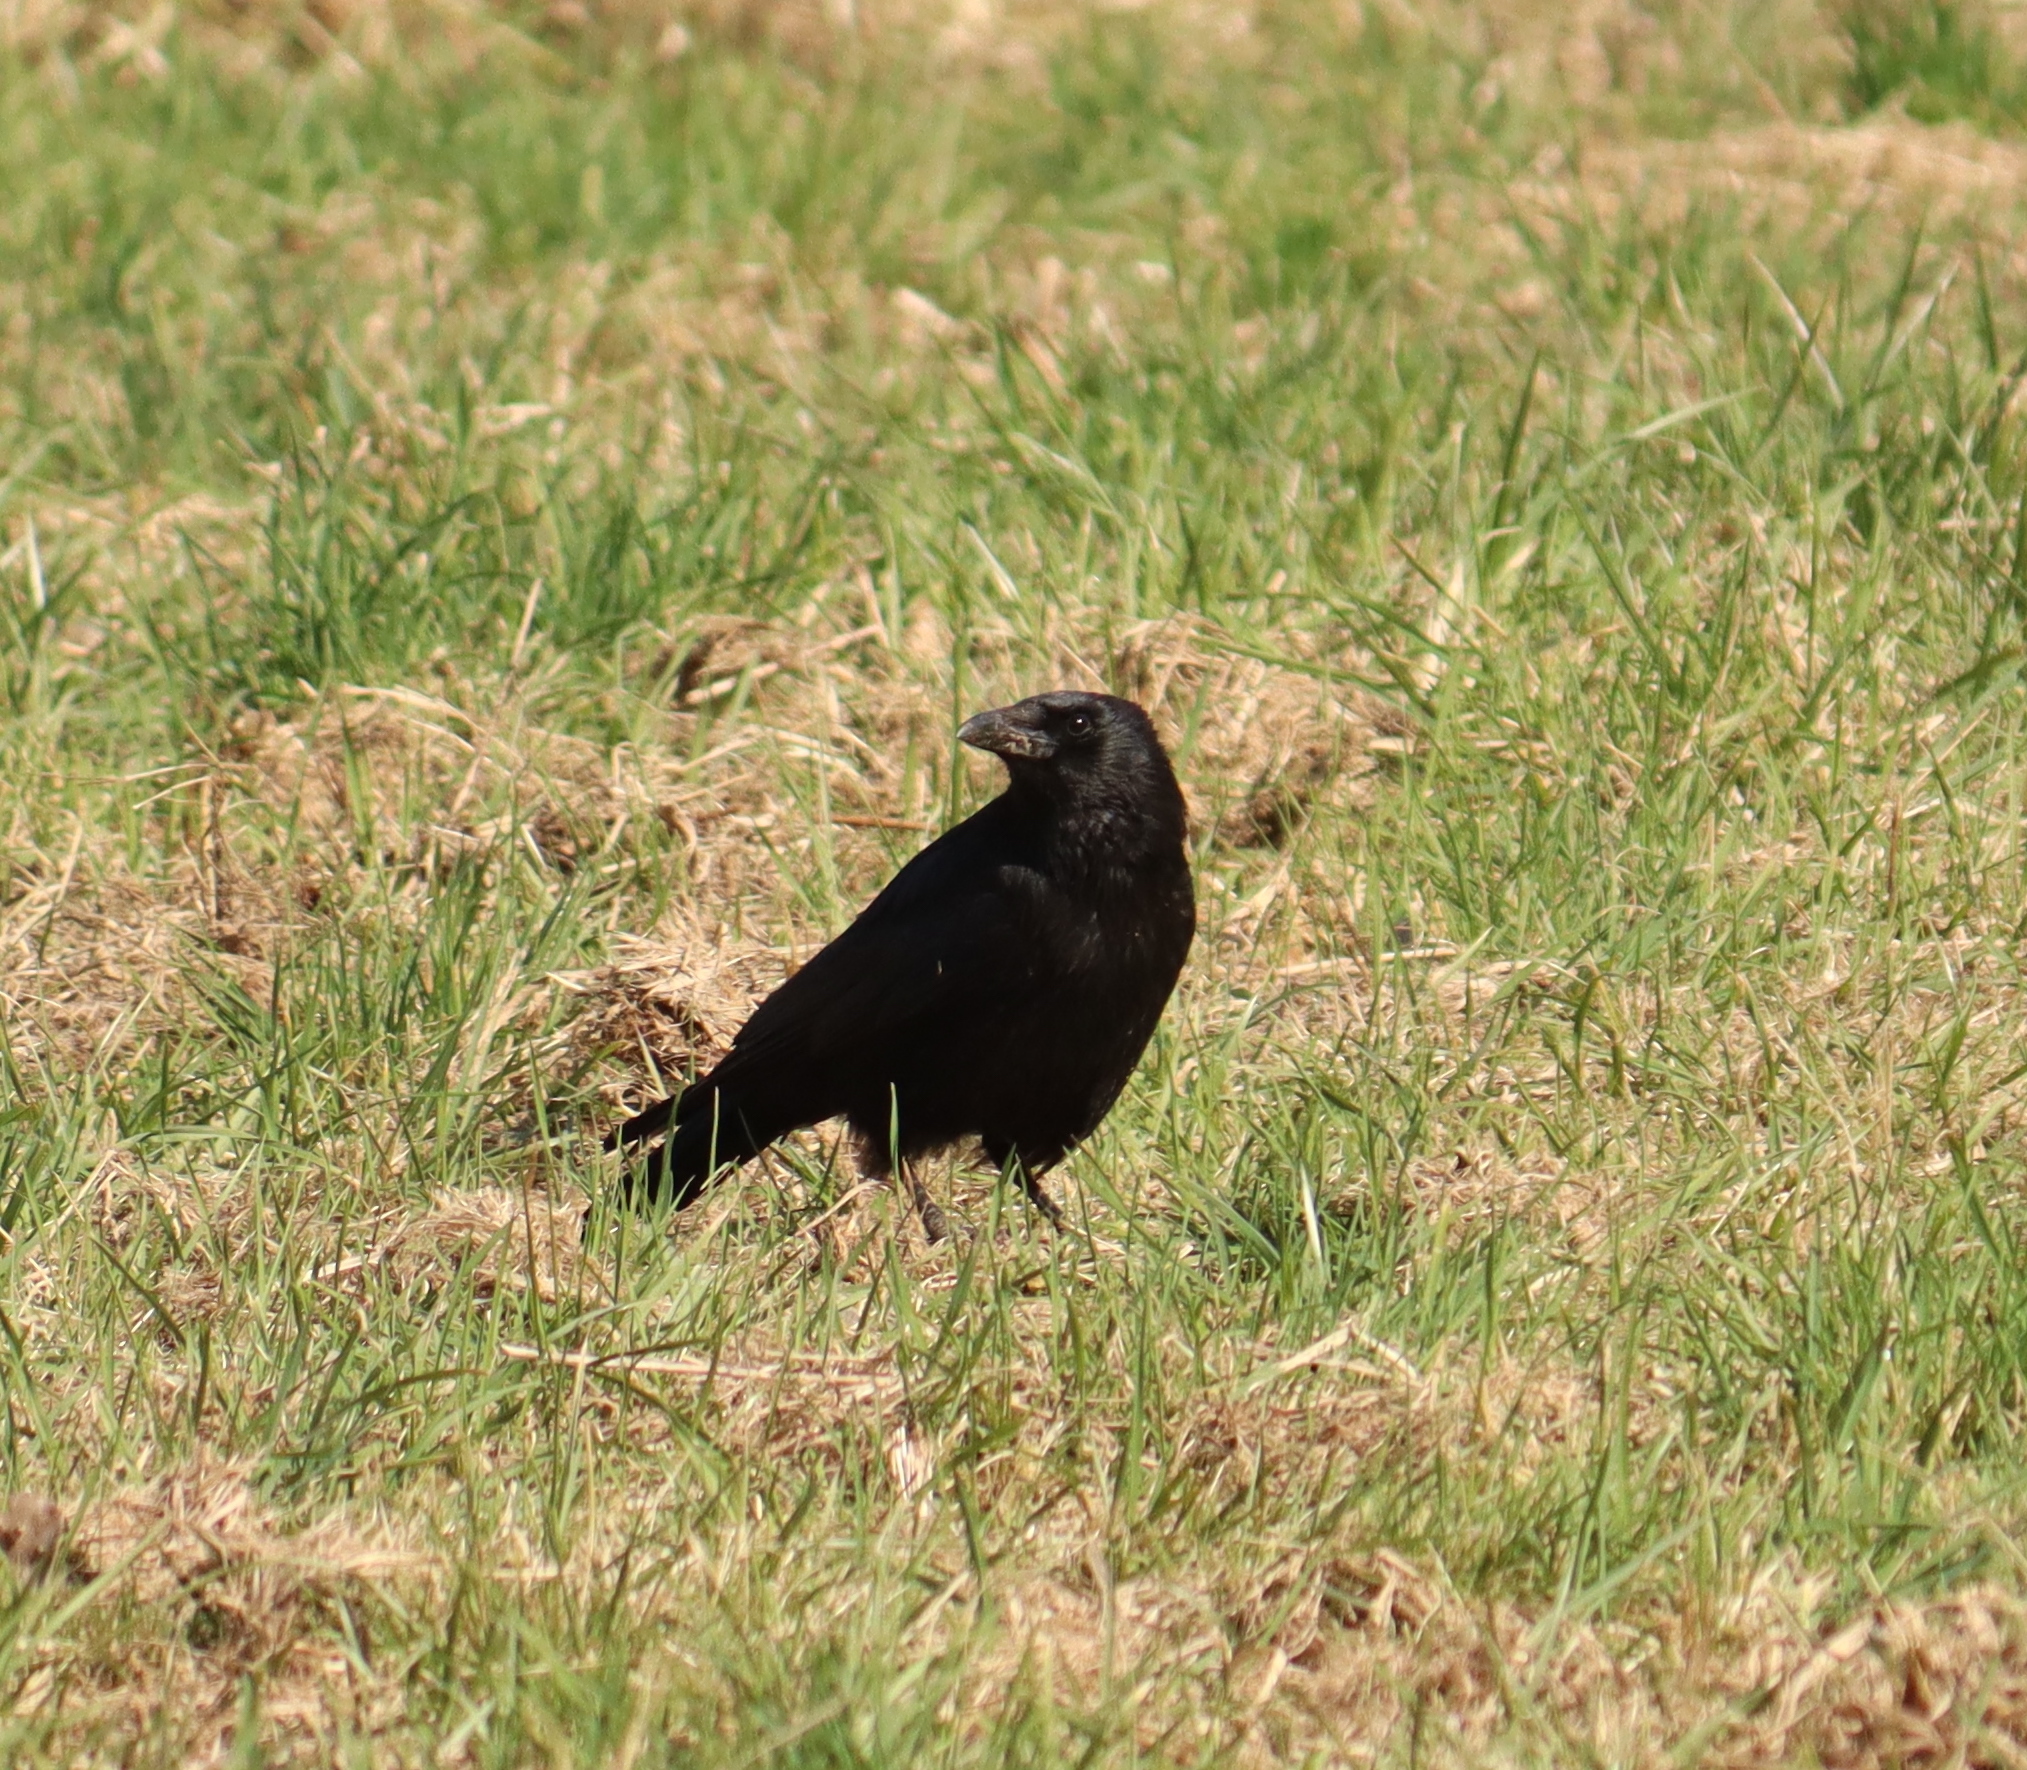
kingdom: Animalia
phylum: Chordata
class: Aves
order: Passeriformes
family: Corvidae
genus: Corvus
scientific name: Corvus corone
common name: Carrion crow
